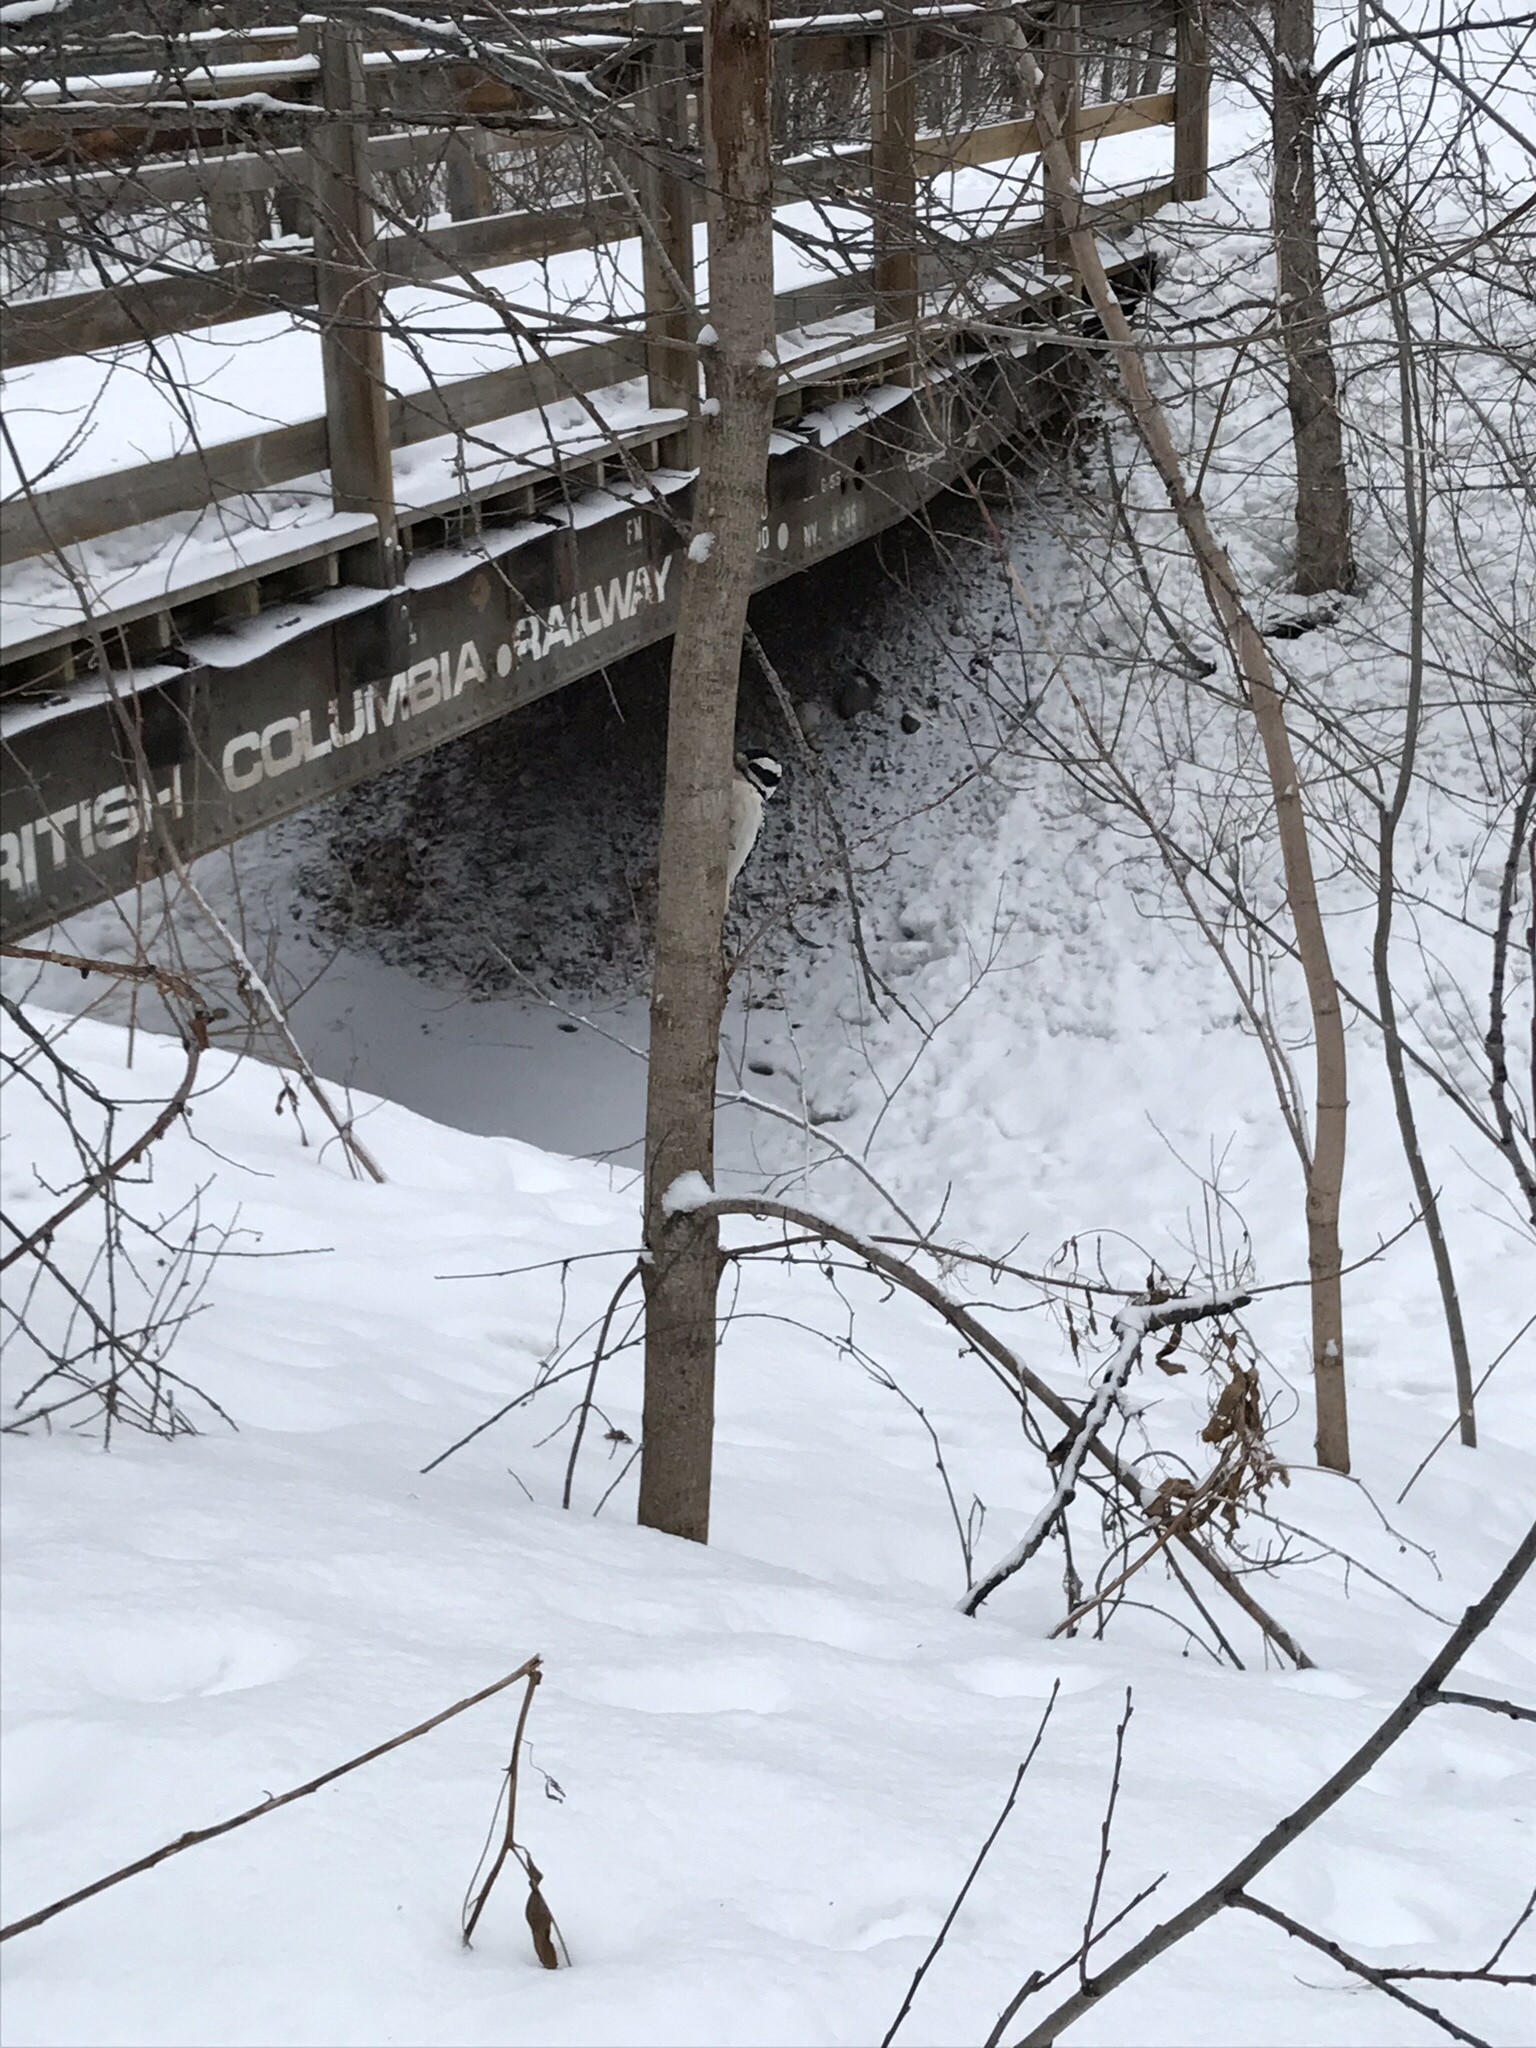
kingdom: Animalia
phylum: Chordata
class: Aves
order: Piciformes
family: Picidae
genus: Dryobates
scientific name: Dryobates pubescens
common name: Downy woodpecker
